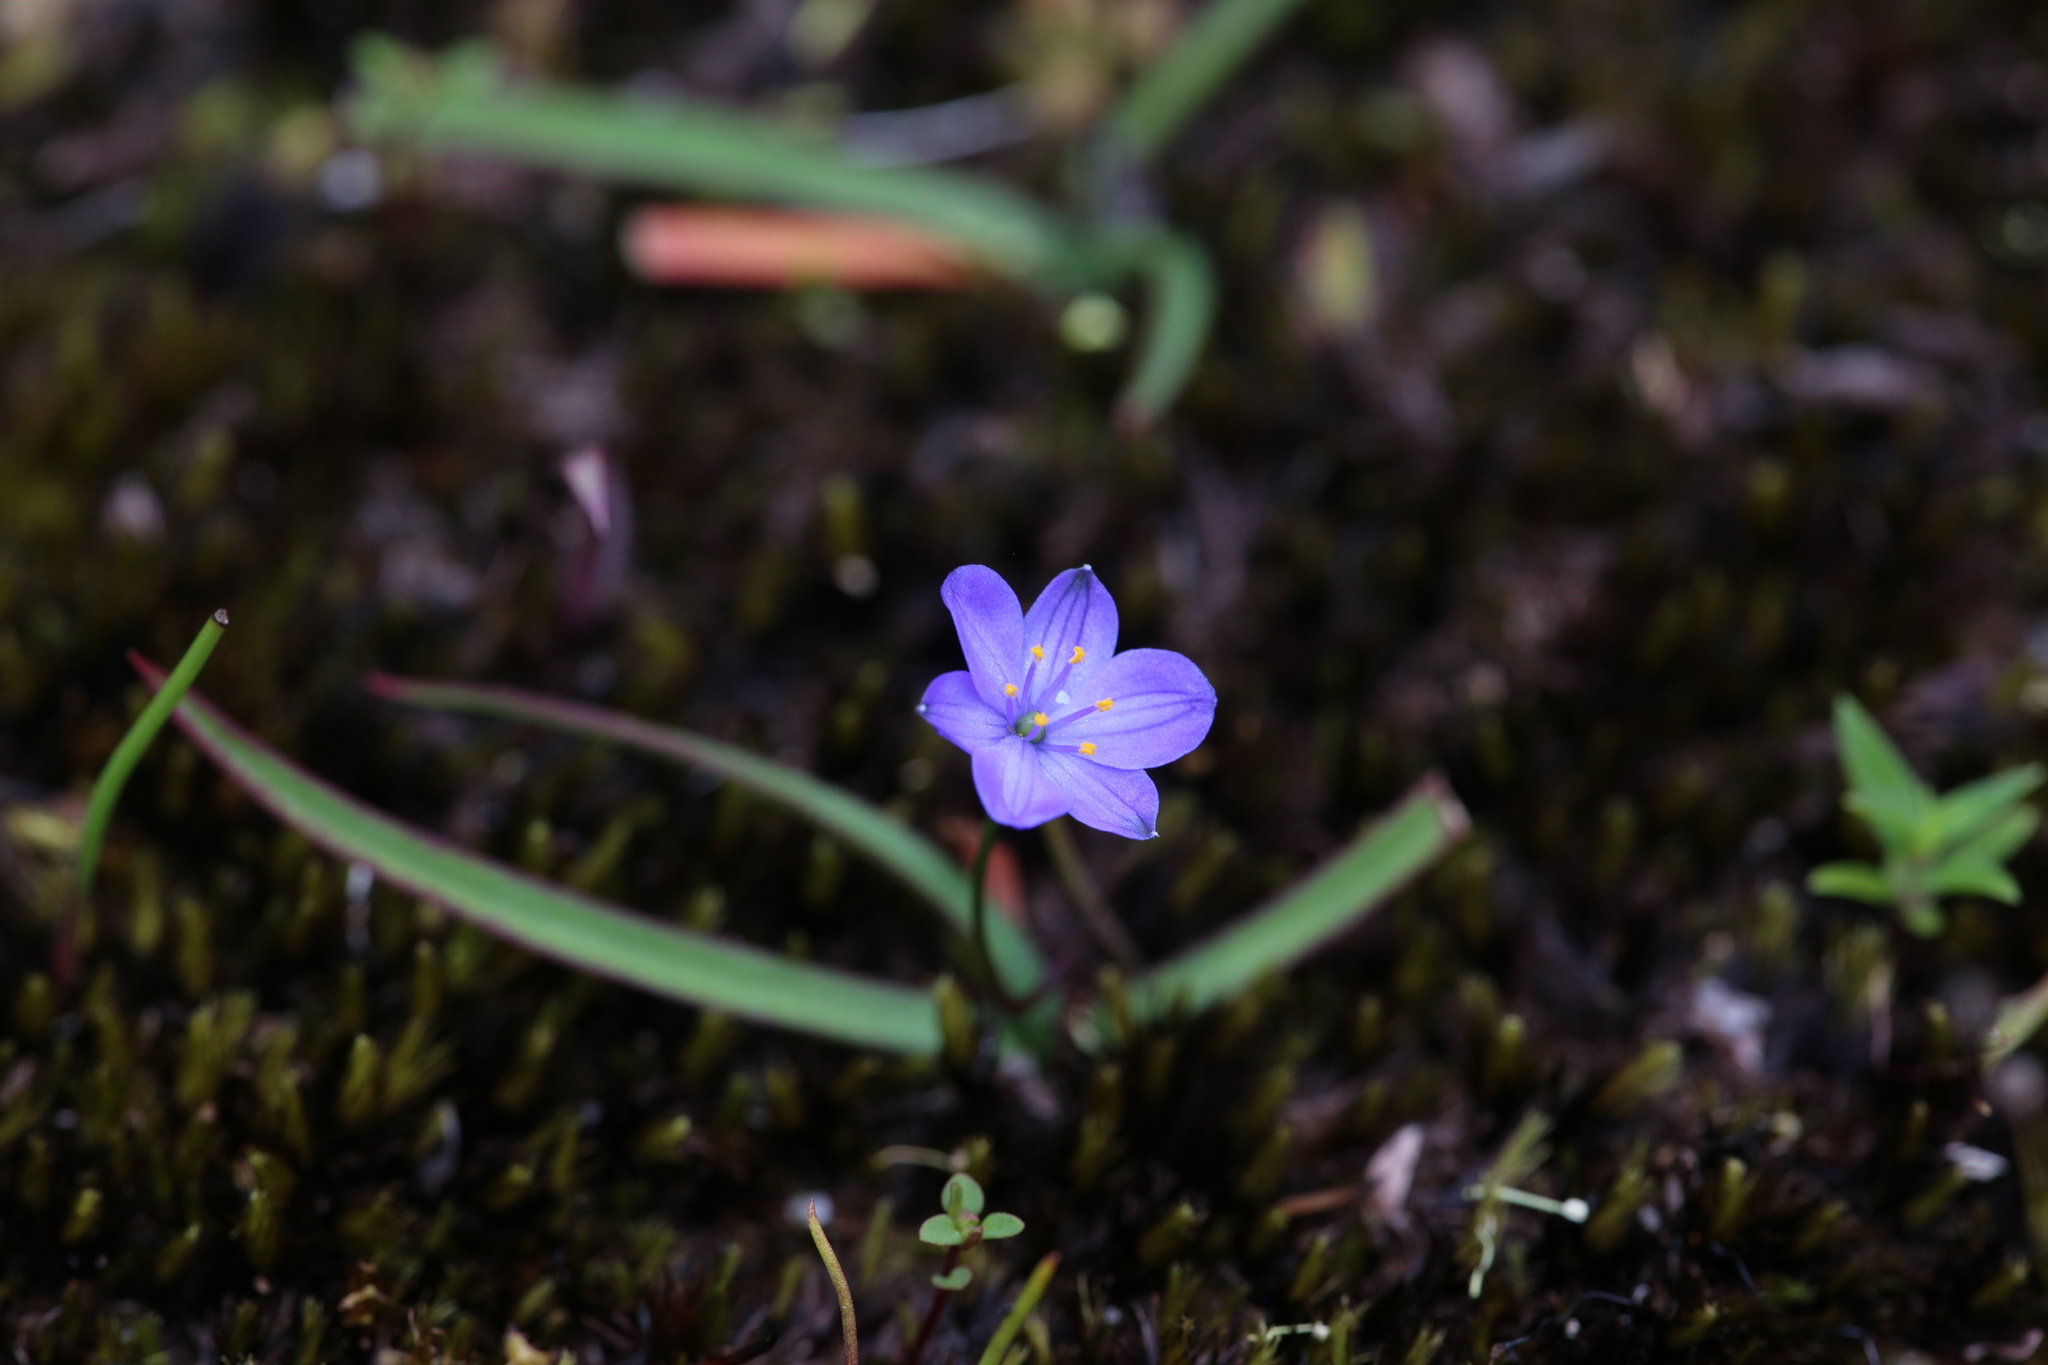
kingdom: Plantae
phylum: Tracheophyta
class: Liliopsida
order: Asparagales
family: Asphodelaceae
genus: Chamaescilla
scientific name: Chamaescilla corymbosa
